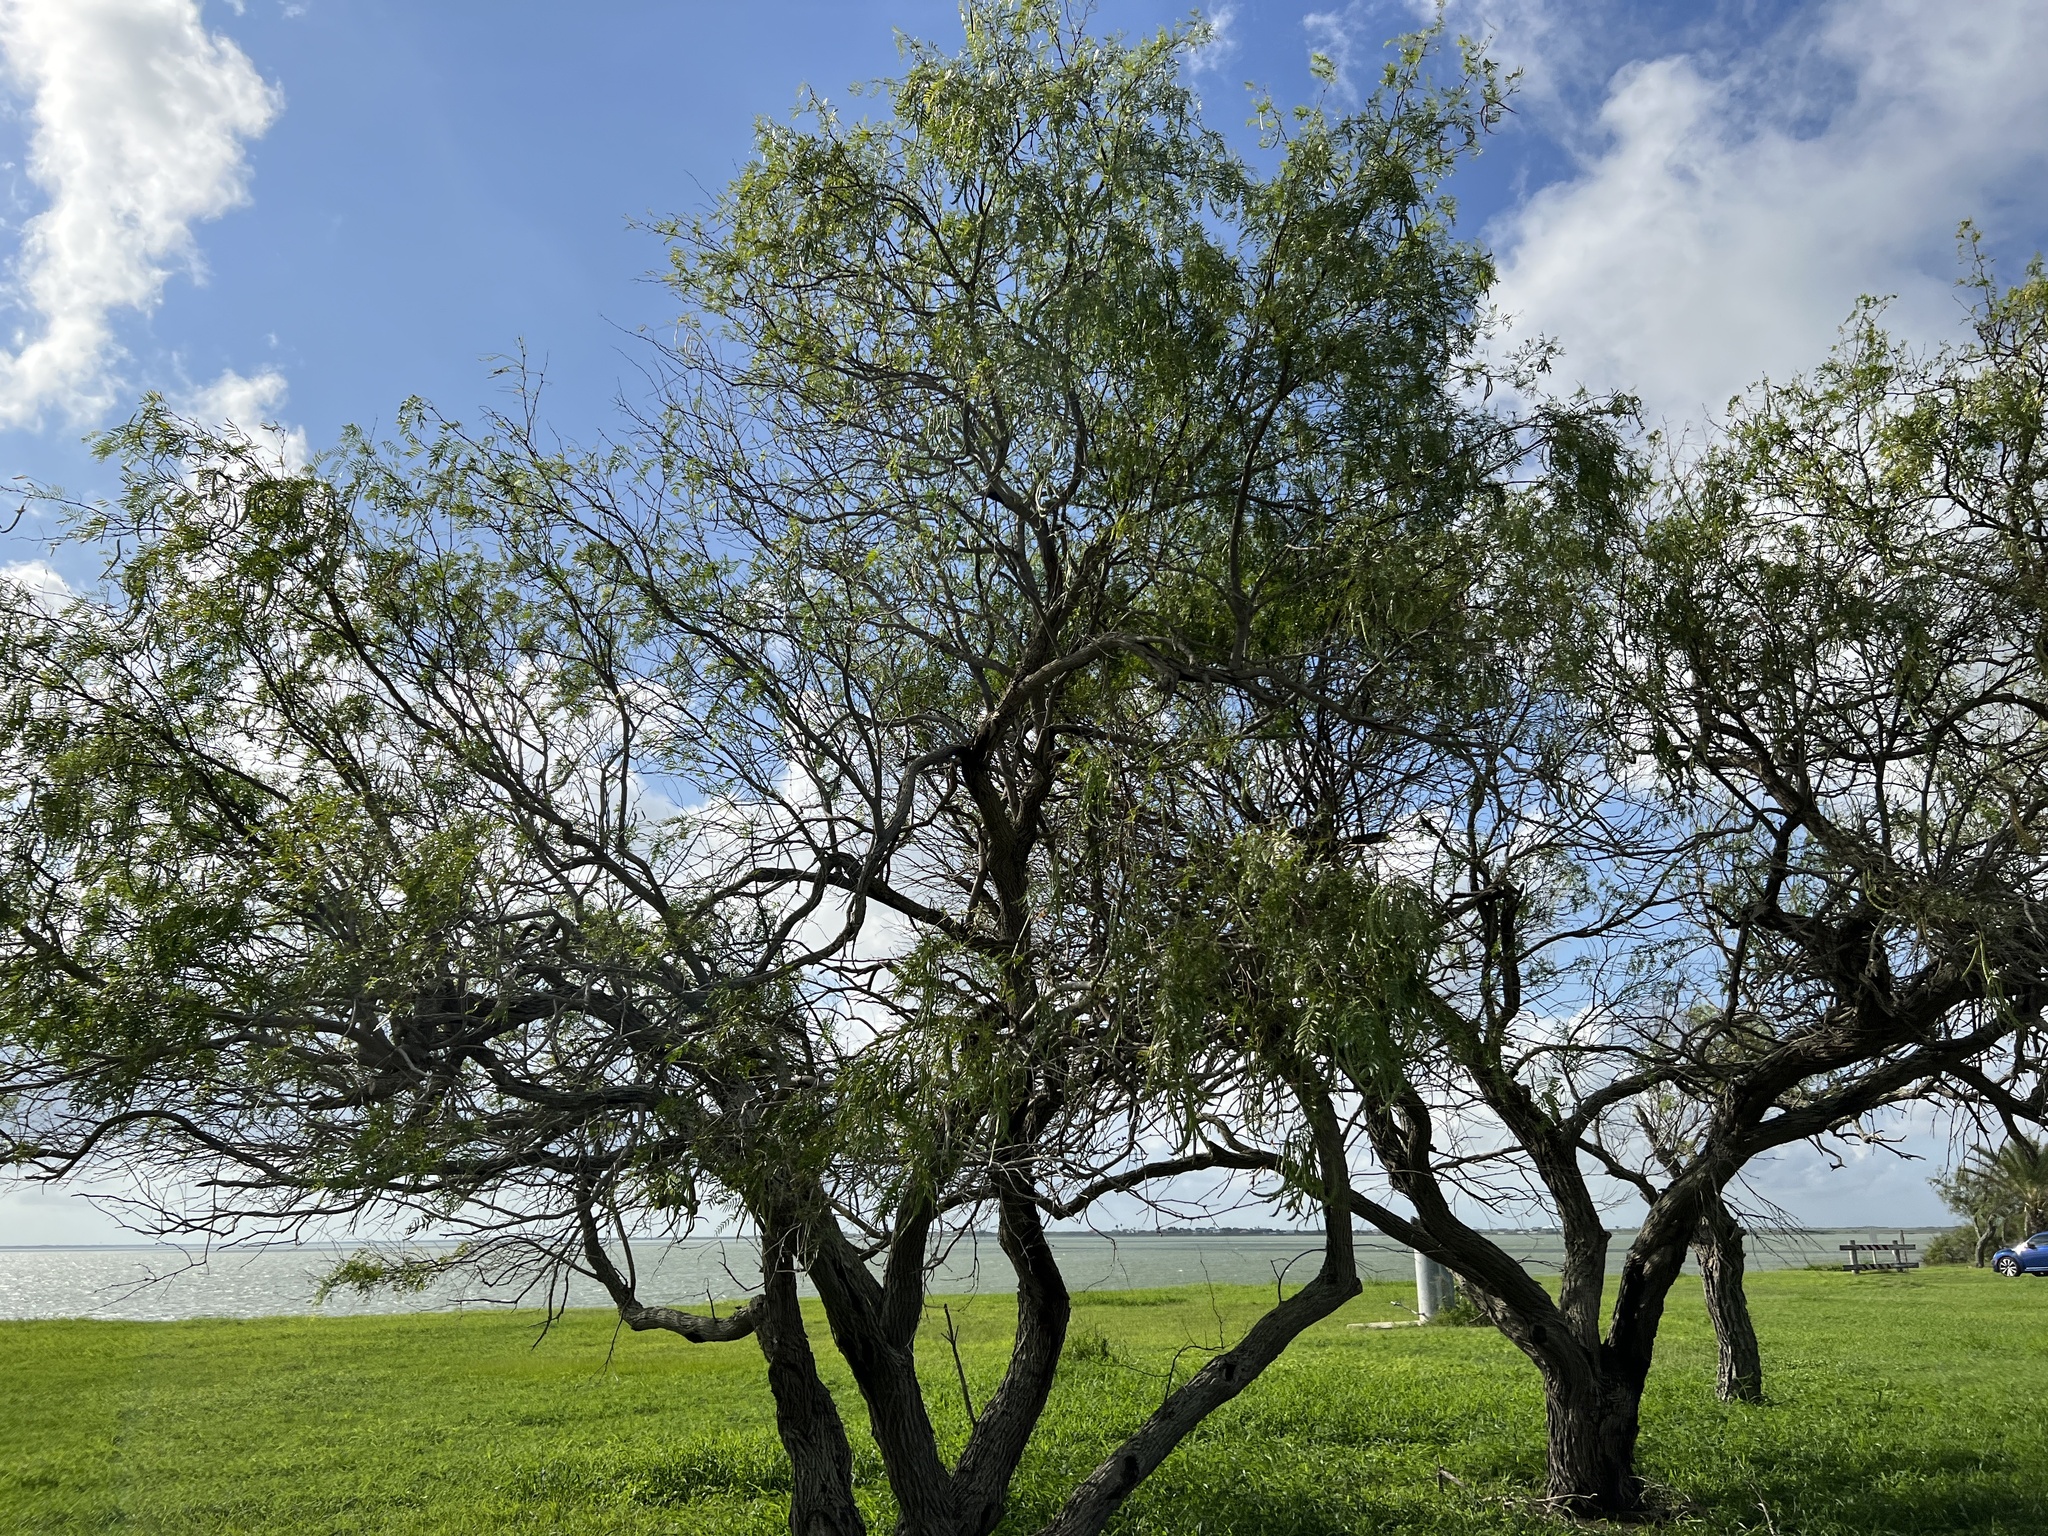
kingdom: Plantae
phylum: Tracheophyta
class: Magnoliopsida
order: Fabales
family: Fabaceae
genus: Prosopis
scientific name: Prosopis glandulosa
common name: Honey mesquite
